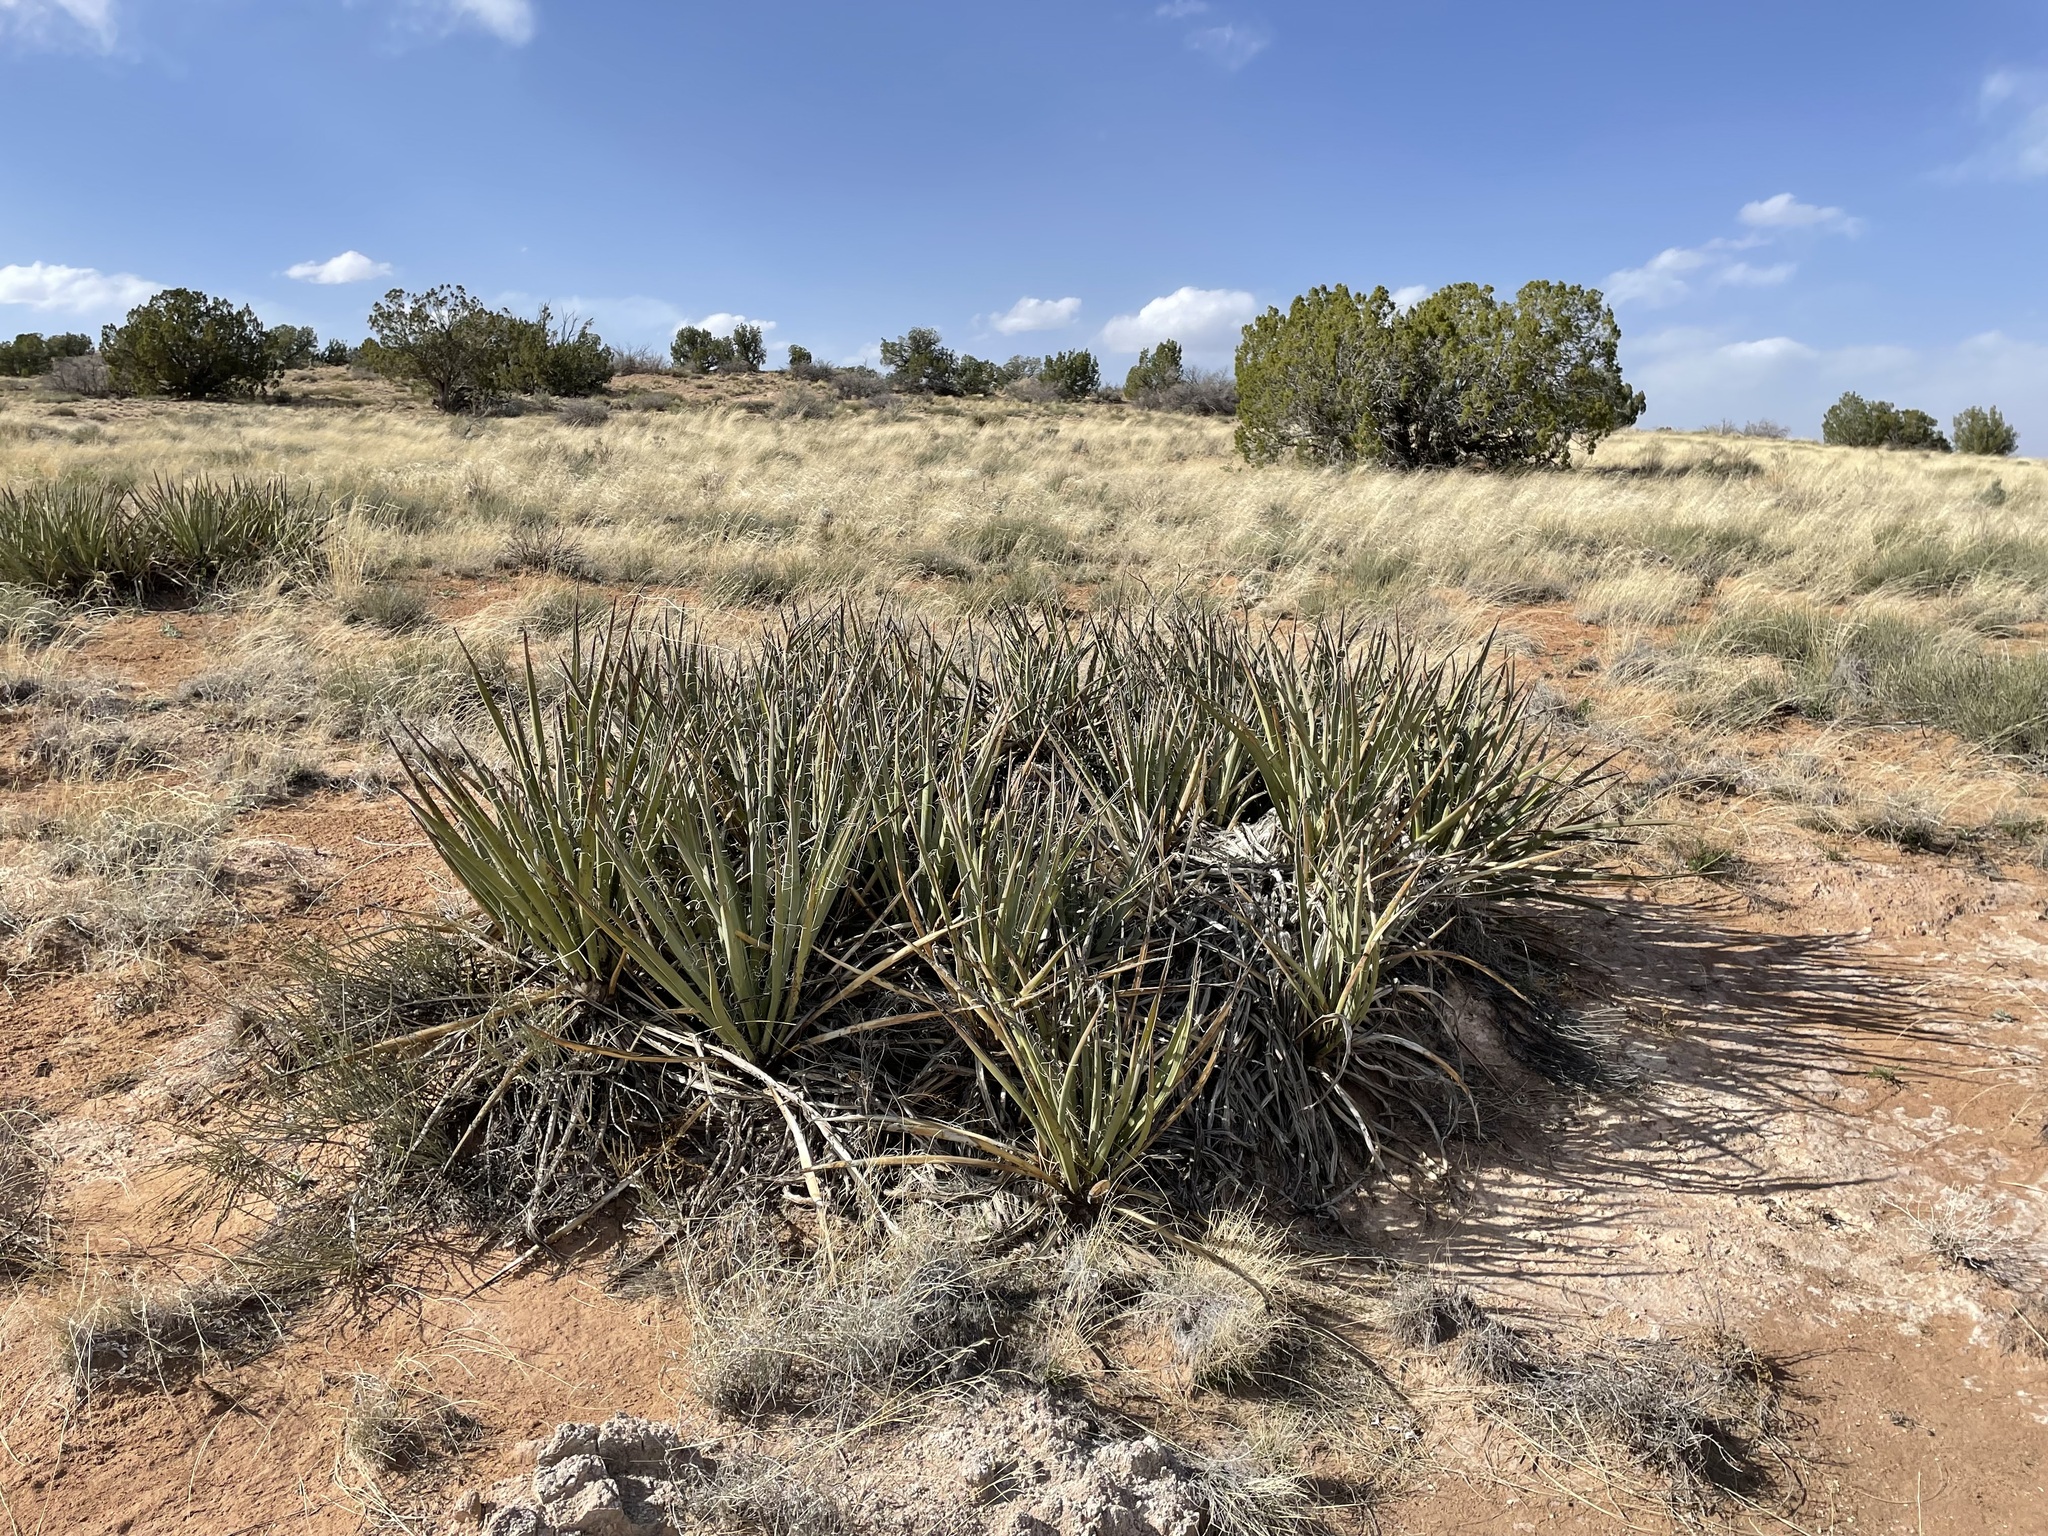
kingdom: Plantae
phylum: Tracheophyta
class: Liliopsida
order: Asparagales
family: Asparagaceae
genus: Yucca
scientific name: Yucca baccata
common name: Banana yucca
